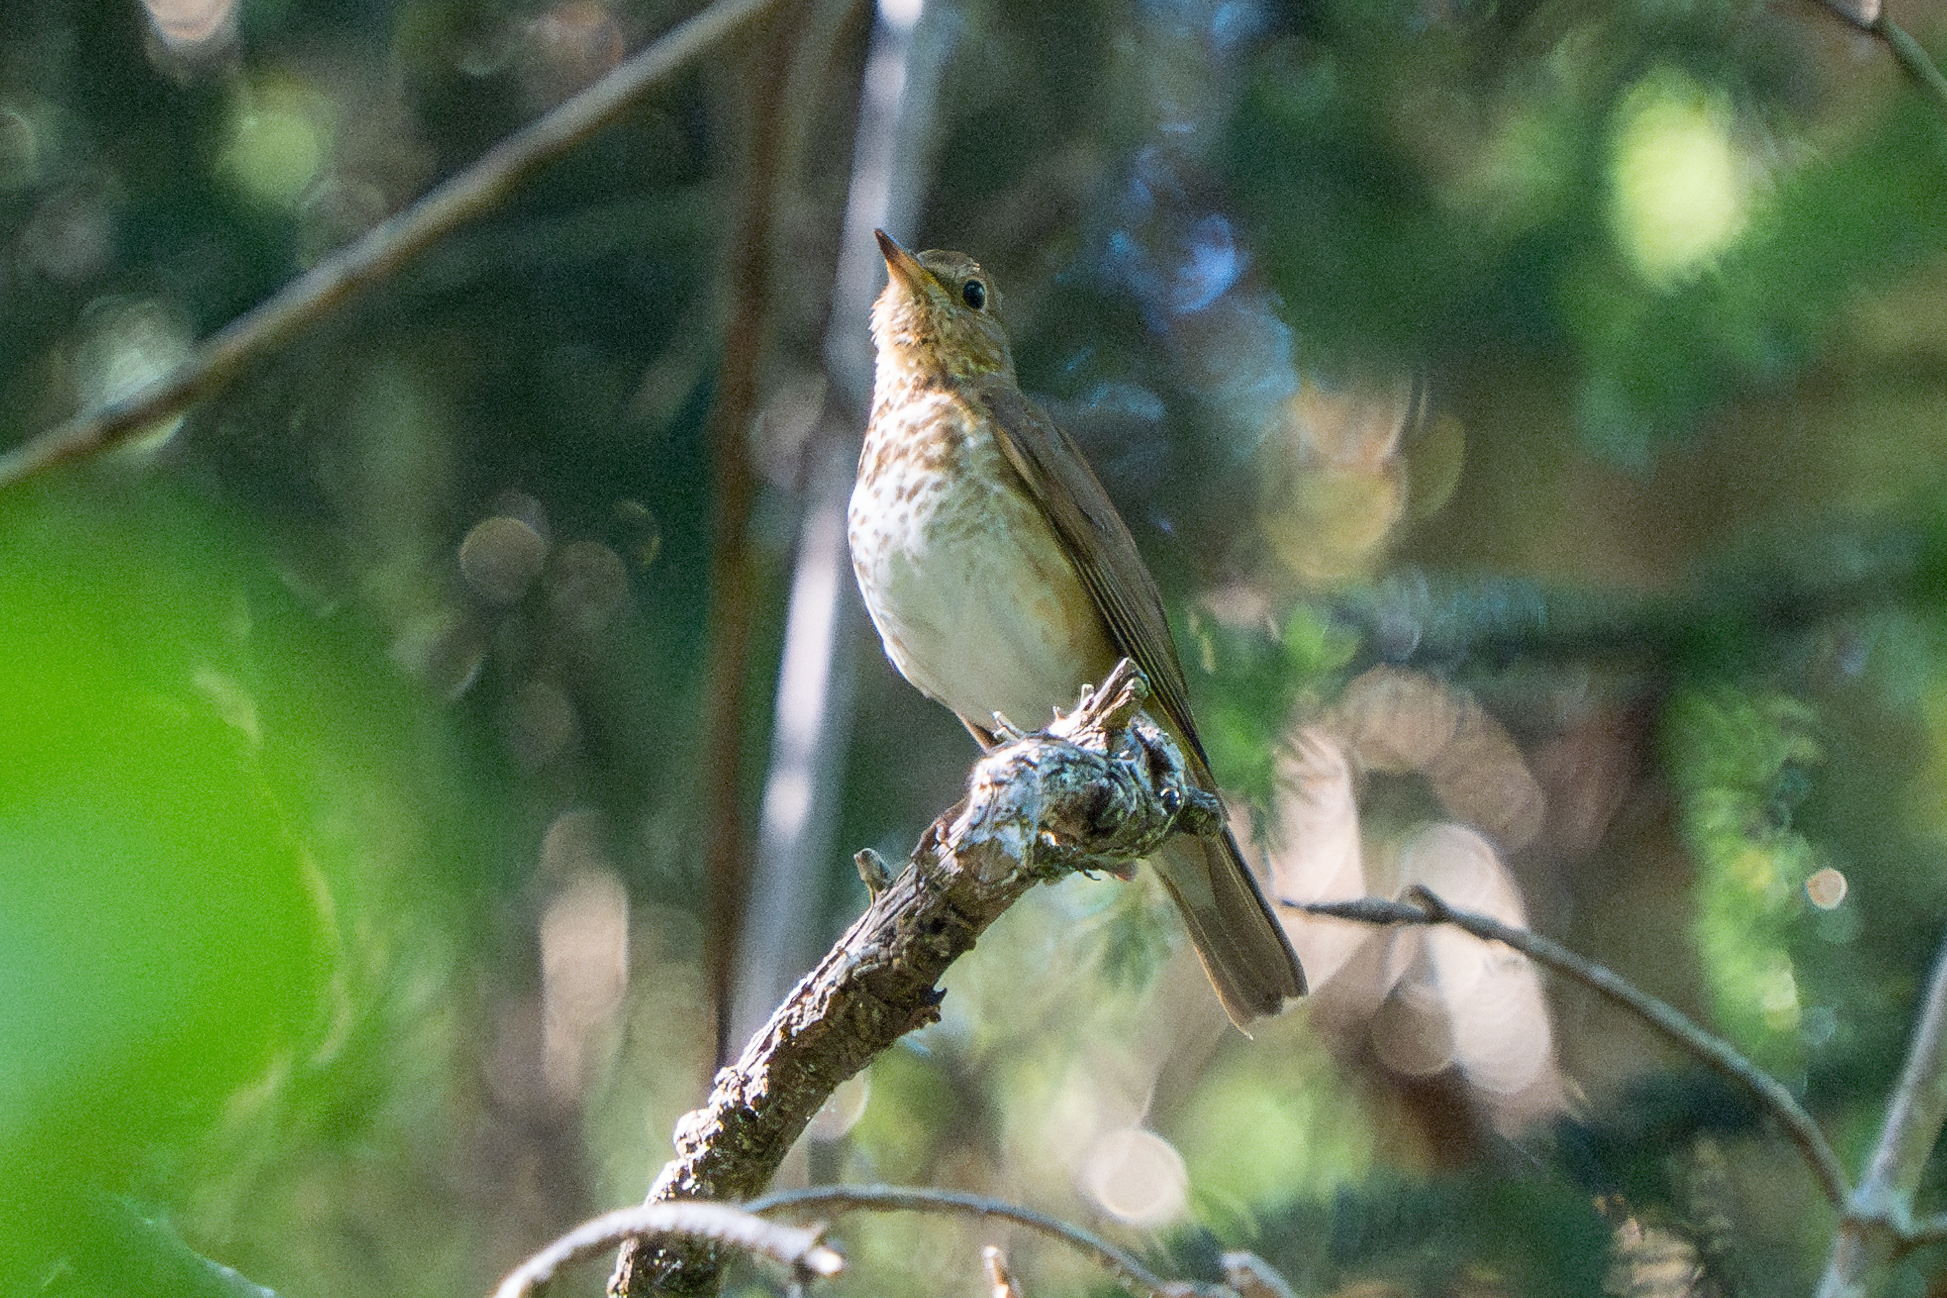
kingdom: Animalia
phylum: Chordata
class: Aves
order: Passeriformes
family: Turdidae
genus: Catharus
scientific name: Catharus ustulatus
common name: Swainson's thrush
